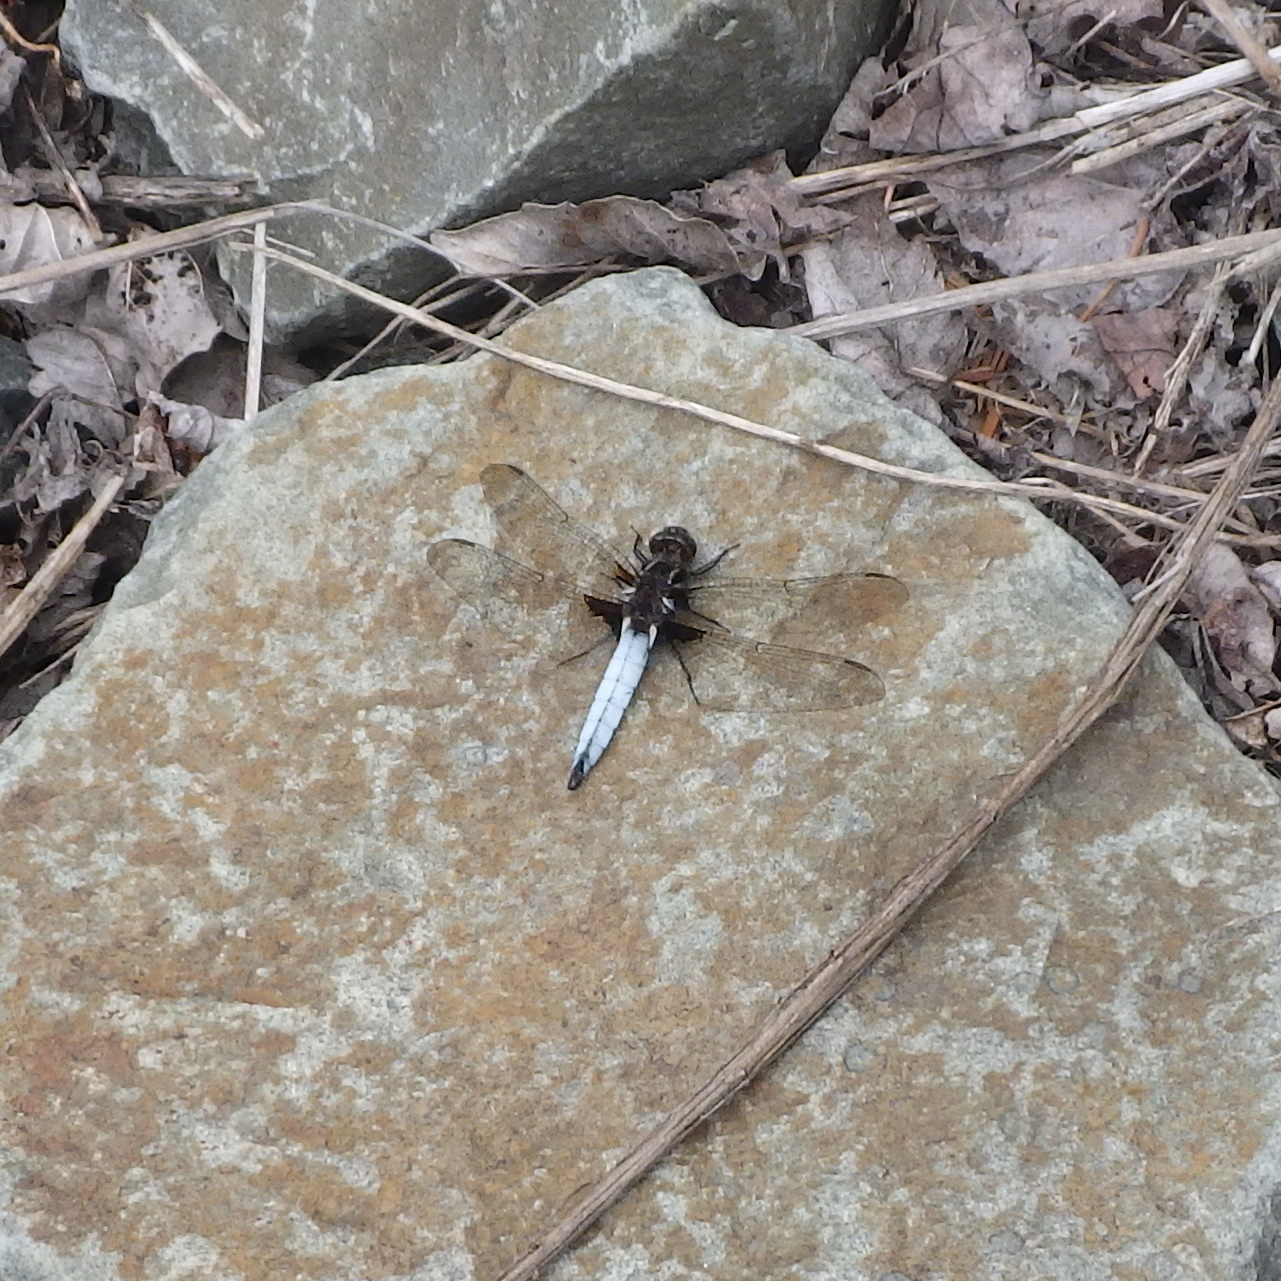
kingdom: Animalia
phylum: Arthropoda
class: Insecta
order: Odonata
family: Libellulidae
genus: Ladona
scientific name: Ladona exusta
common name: Libellule embrasée
